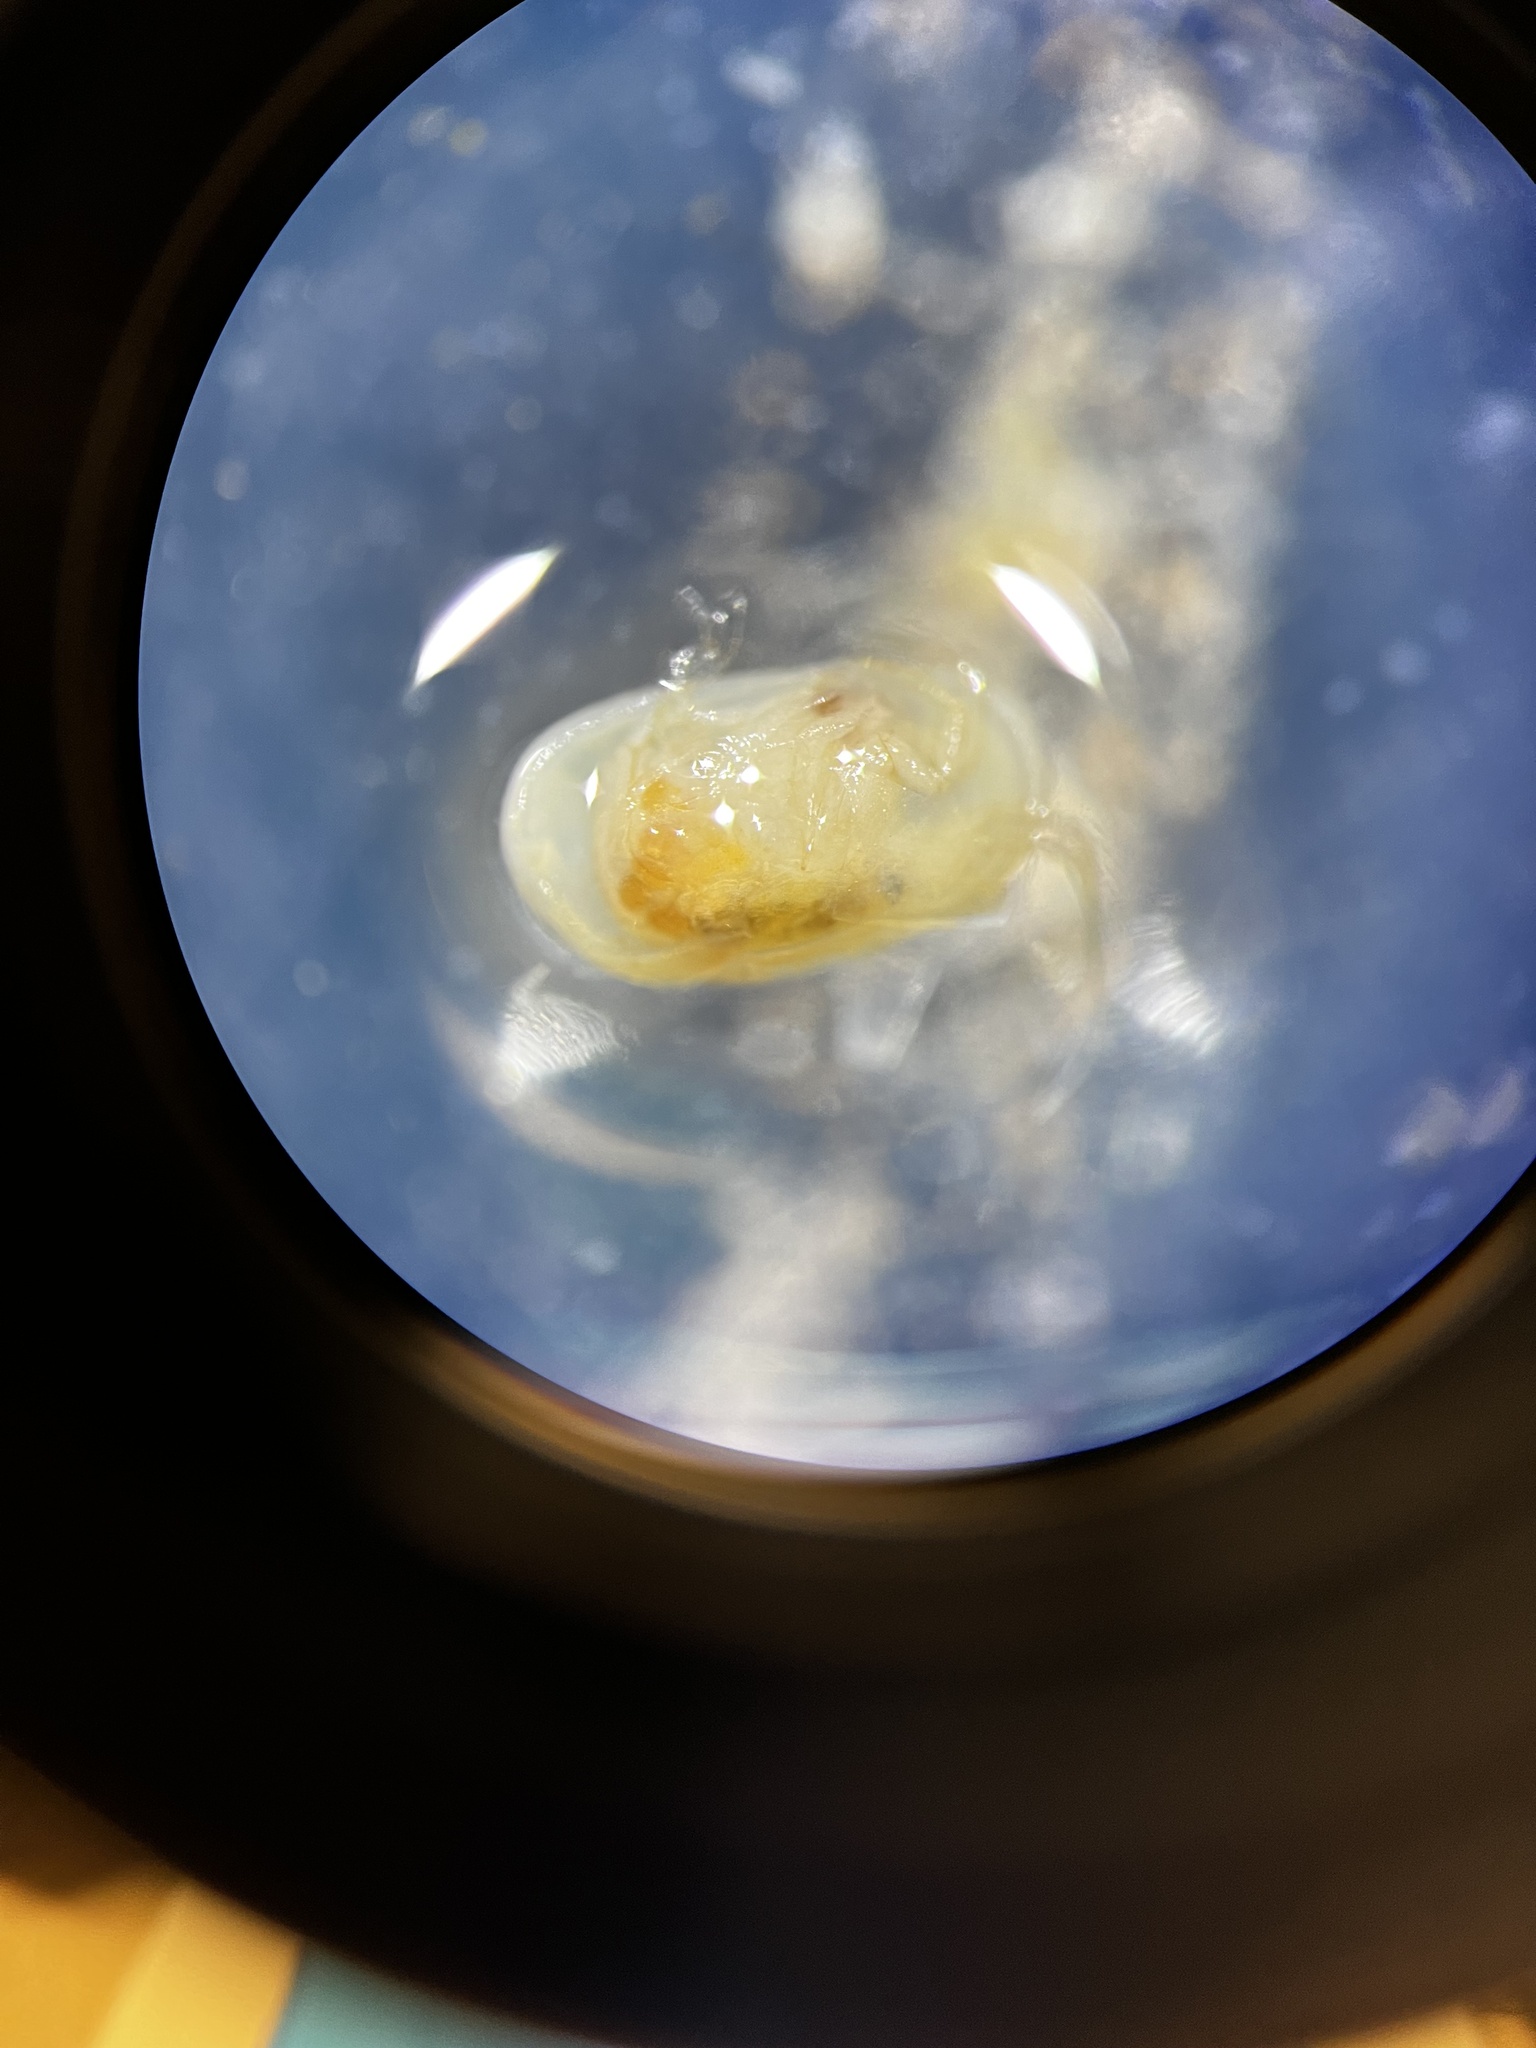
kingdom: Animalia
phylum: Arthropoda
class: Ostracoda
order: Podocopida
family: Cyprididae
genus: Heterocypris
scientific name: Heterocypris incongruens
